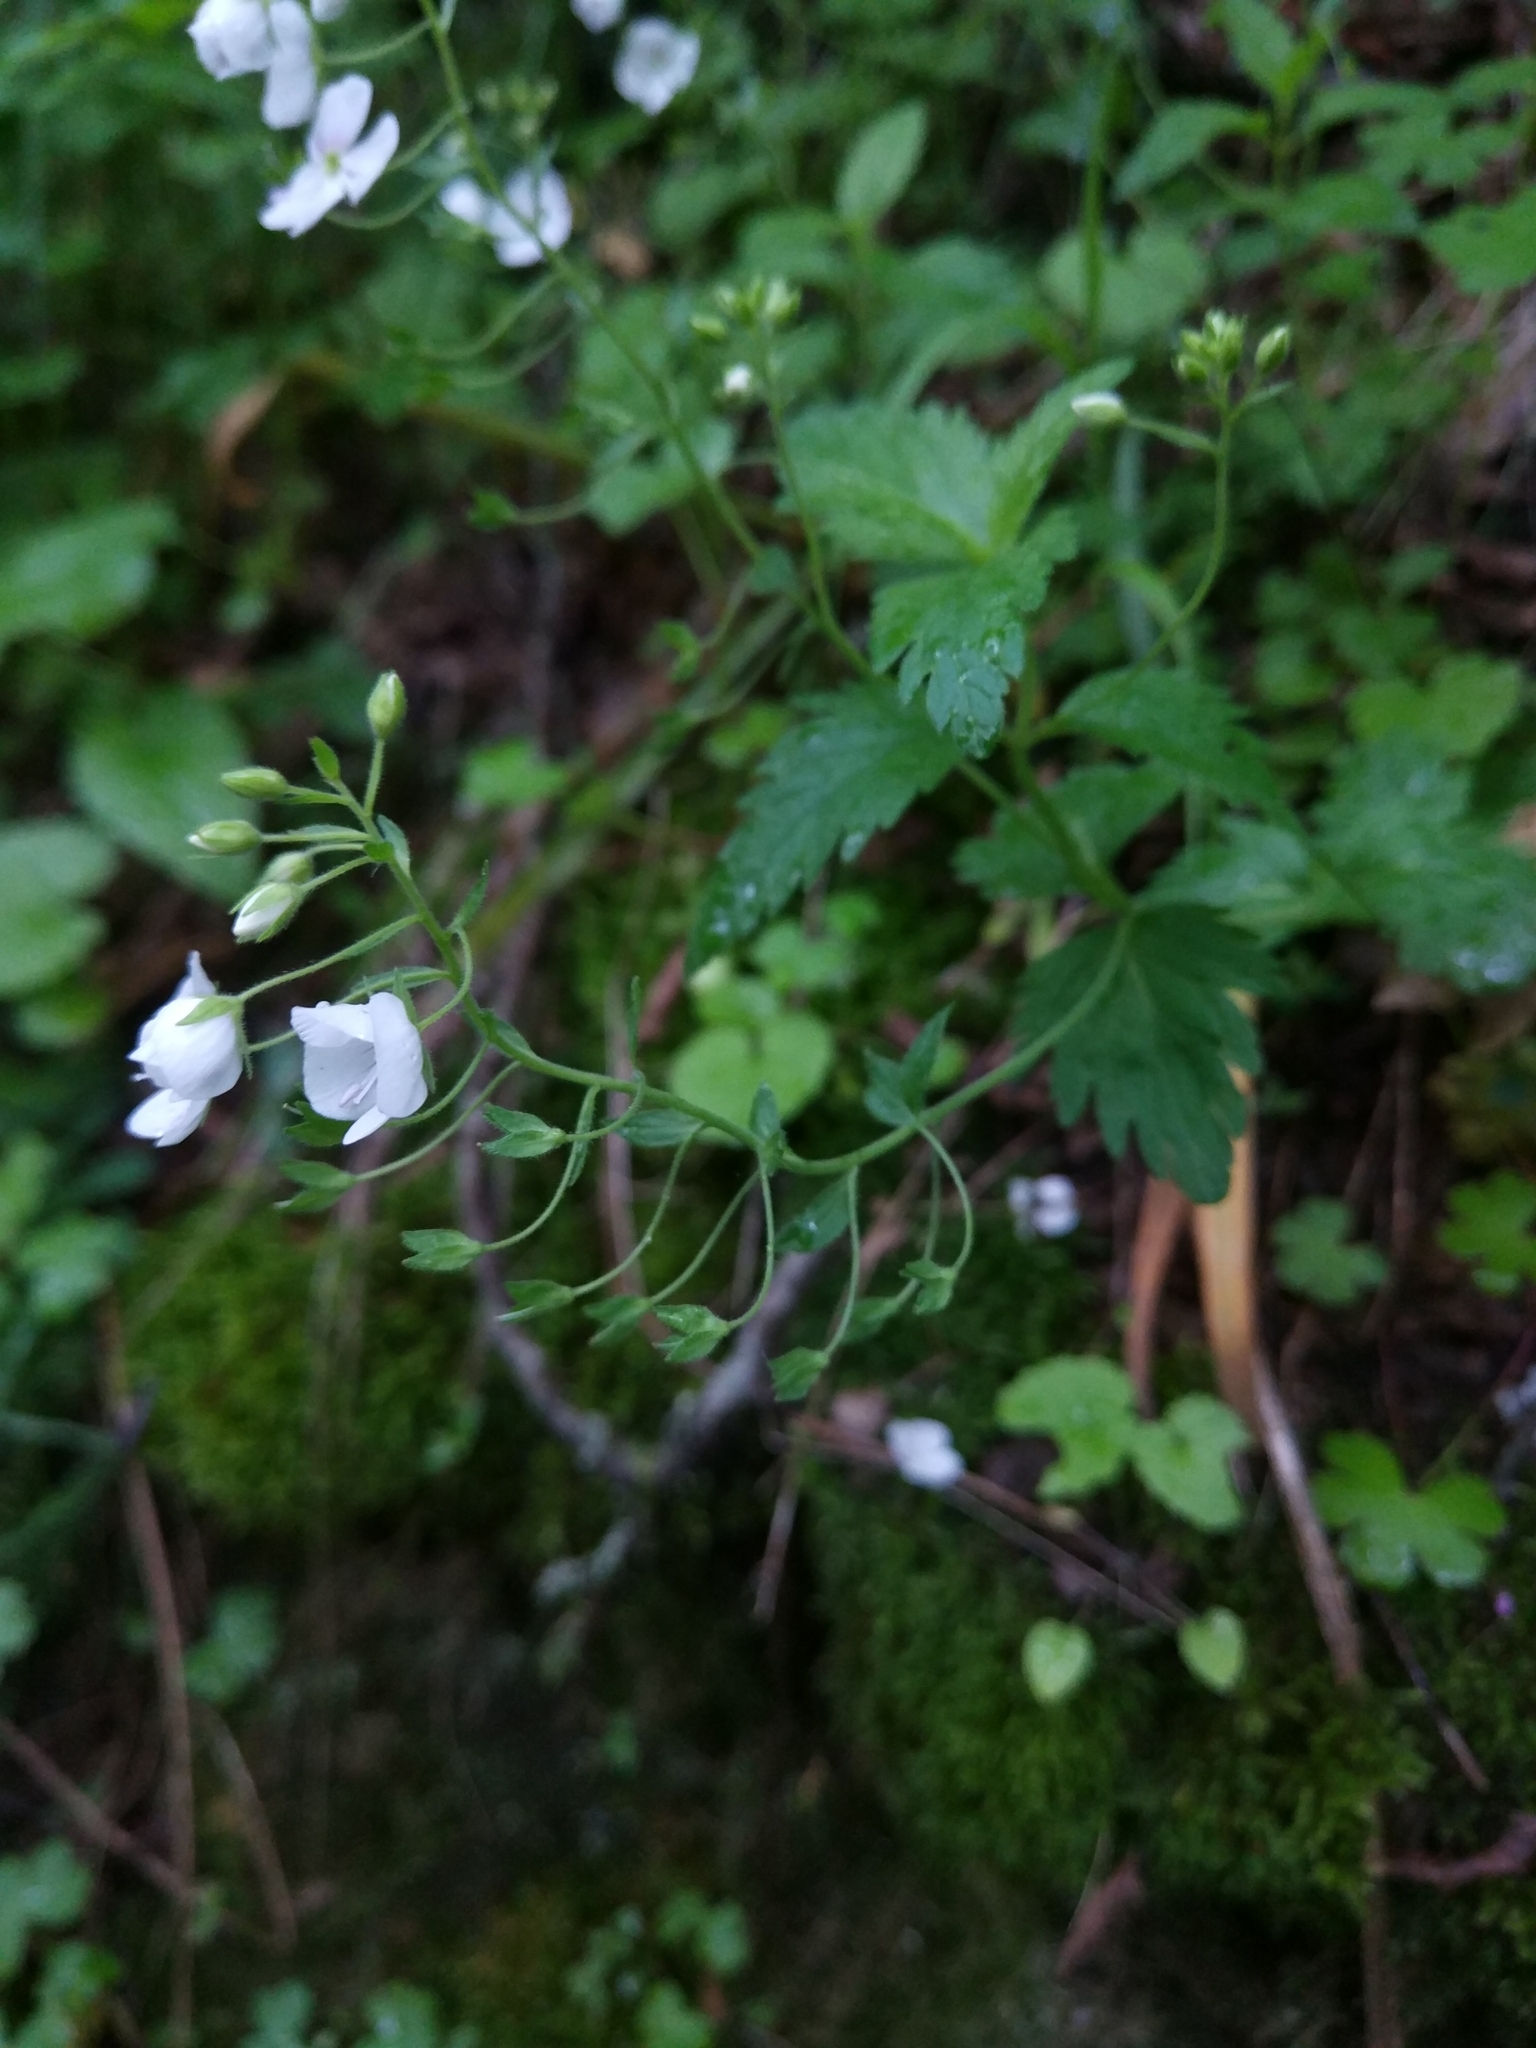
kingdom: Plantae
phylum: Tracheophyta
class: Magnoliopsida
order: Lamiales
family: Plantaginaceae
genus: Veronica
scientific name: Veronica peduncularis
